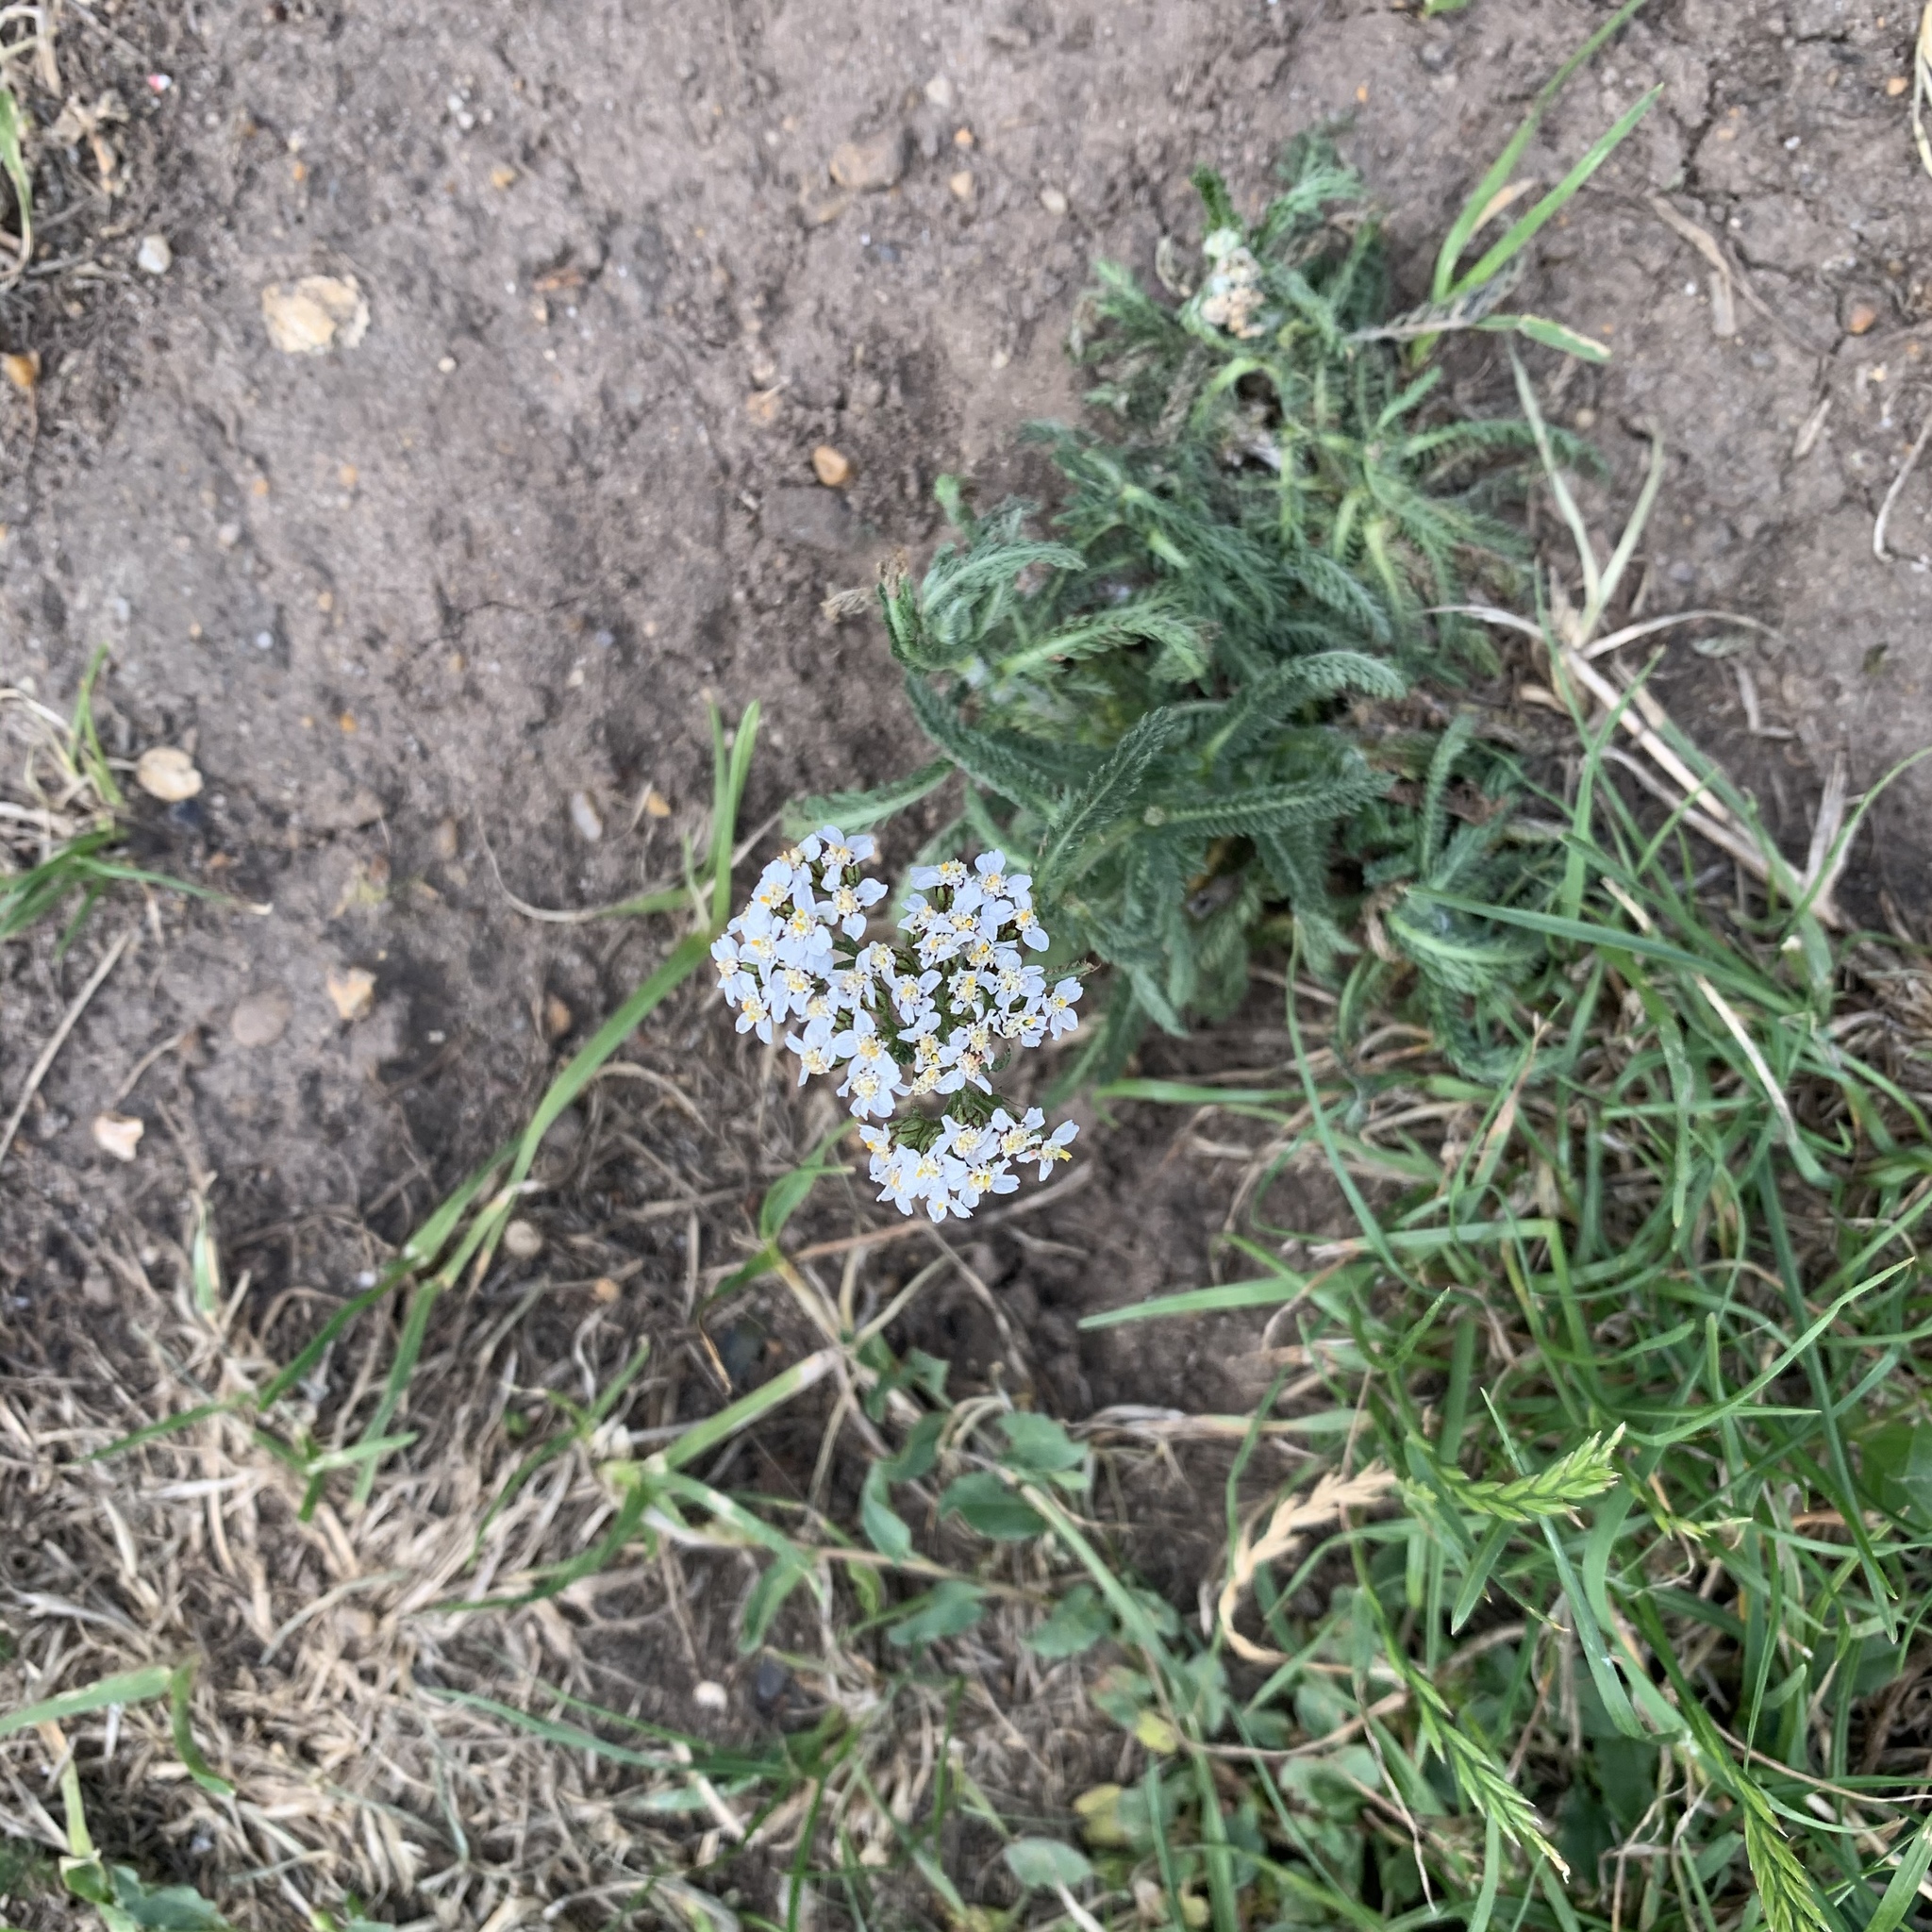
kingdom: Plantae
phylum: Tracheophyta
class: Magnoliopsida
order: Asterales
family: Asteraceae
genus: Achillea
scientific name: Achillea millefolium
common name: Yarrow
